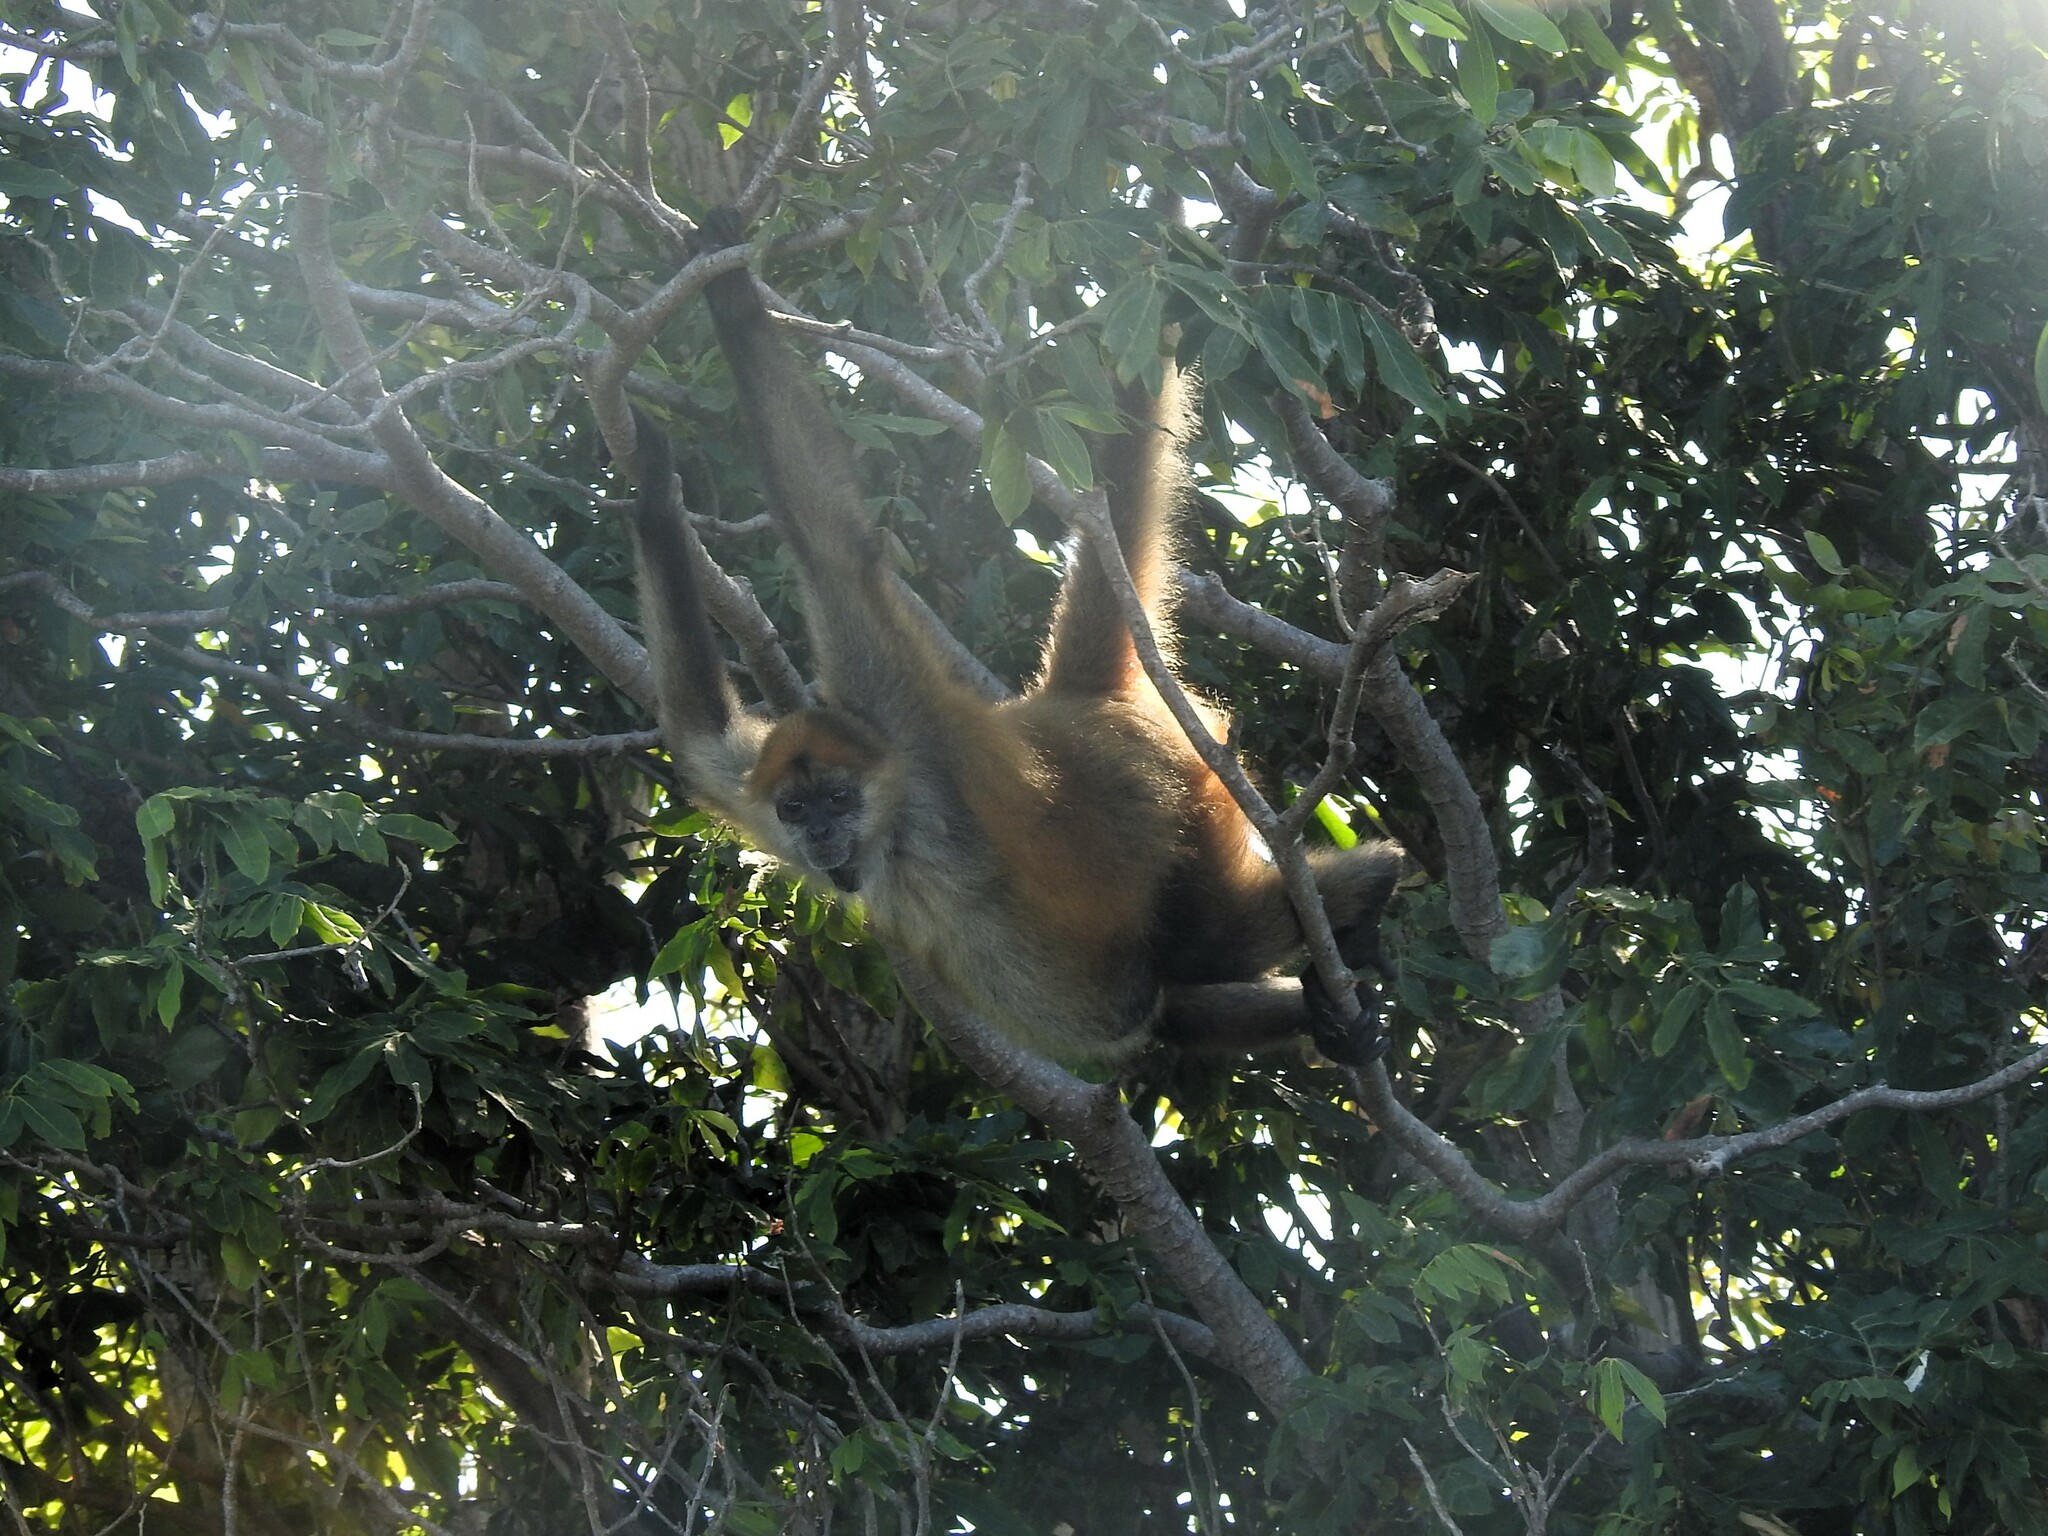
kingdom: Animalia
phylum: Chordata
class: Mammalia
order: Primates
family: Atelidae
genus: Ateles
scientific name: Ateles geoffroyi
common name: Black-handed spider monkey
